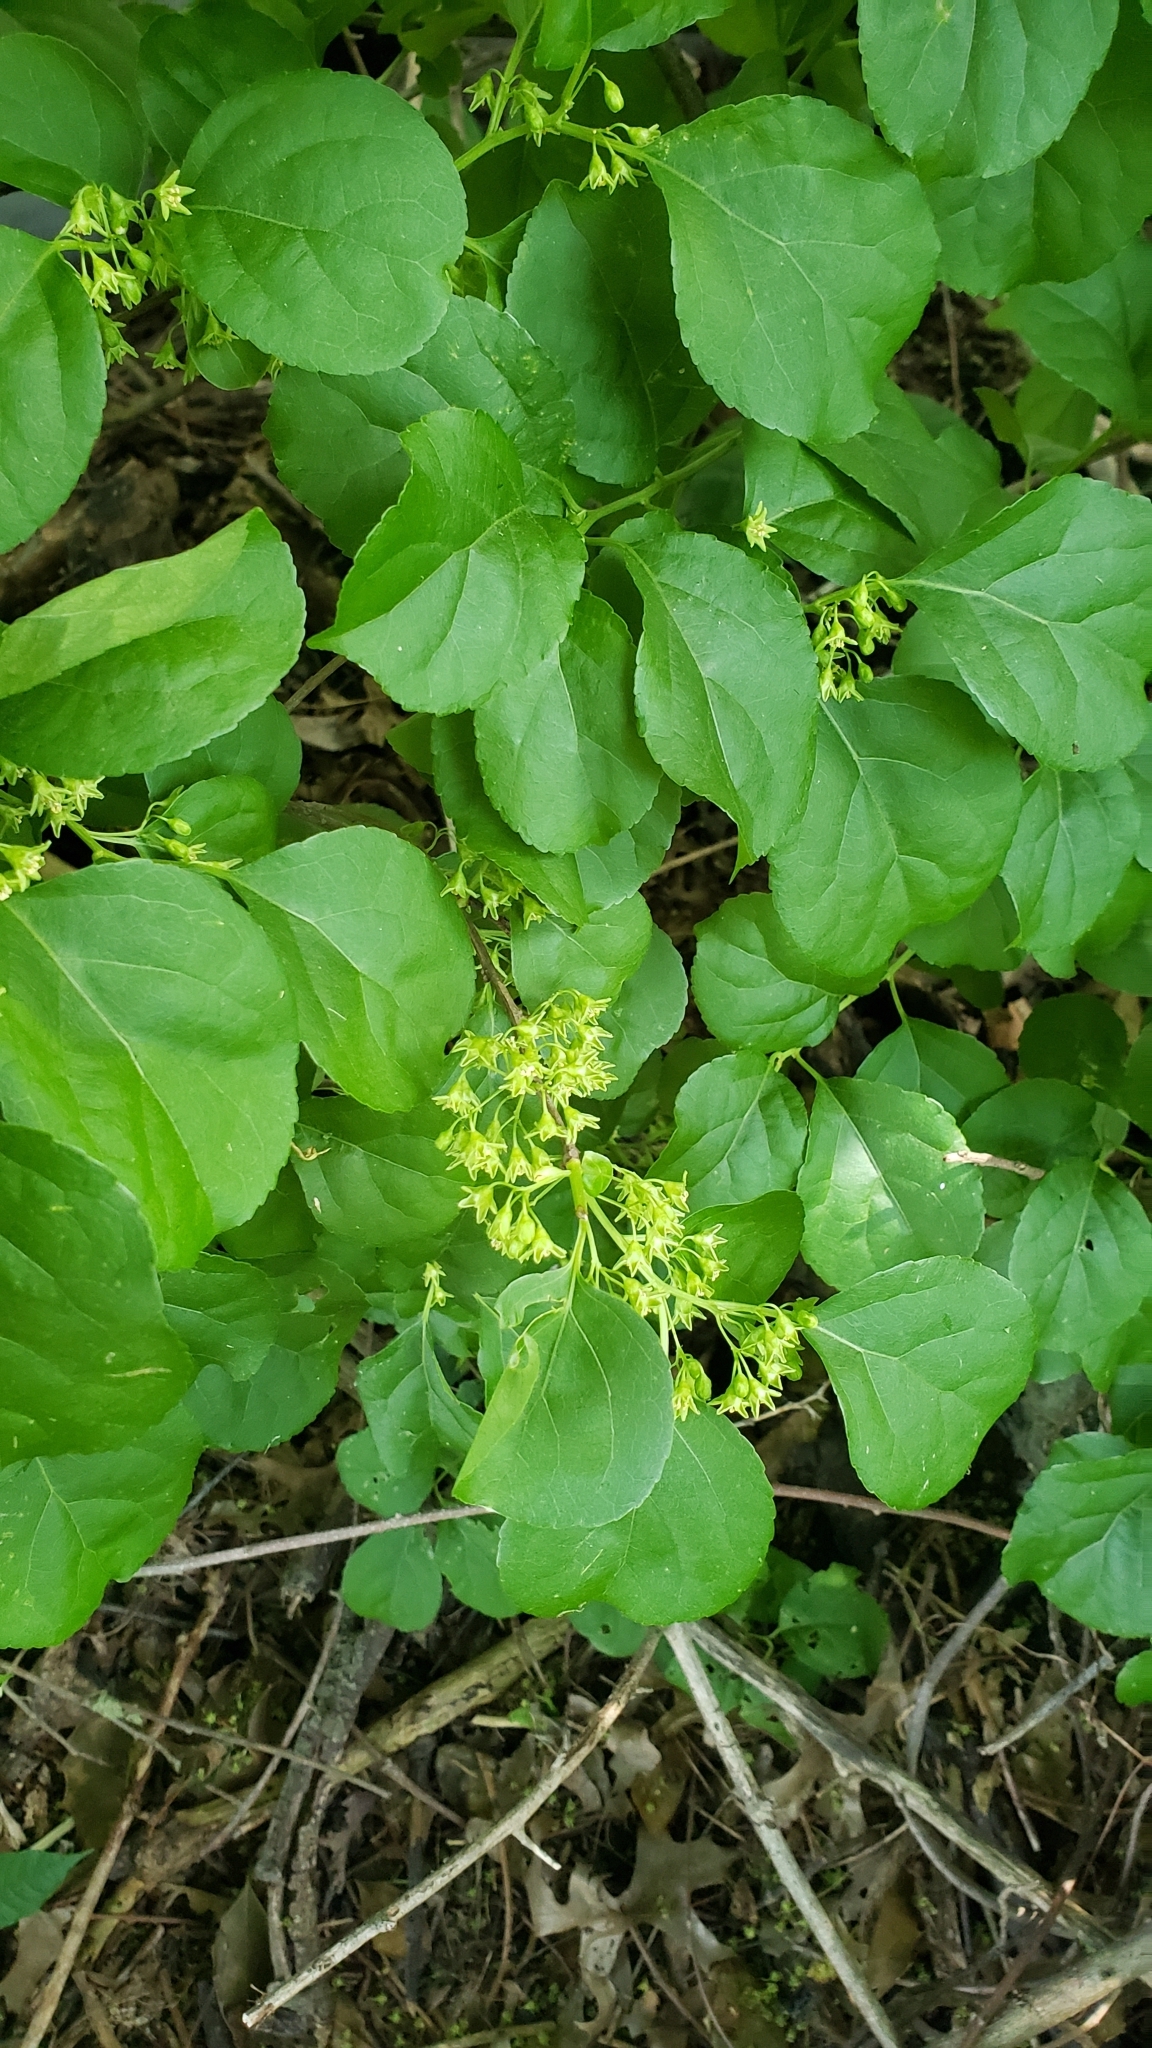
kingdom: Plantae
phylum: Tracheophyta
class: Magnoliopsida
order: Celastrales
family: Celastraceae
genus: Celastrus
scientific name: Celastrus orbiculatus
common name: Oriental bittersweet
